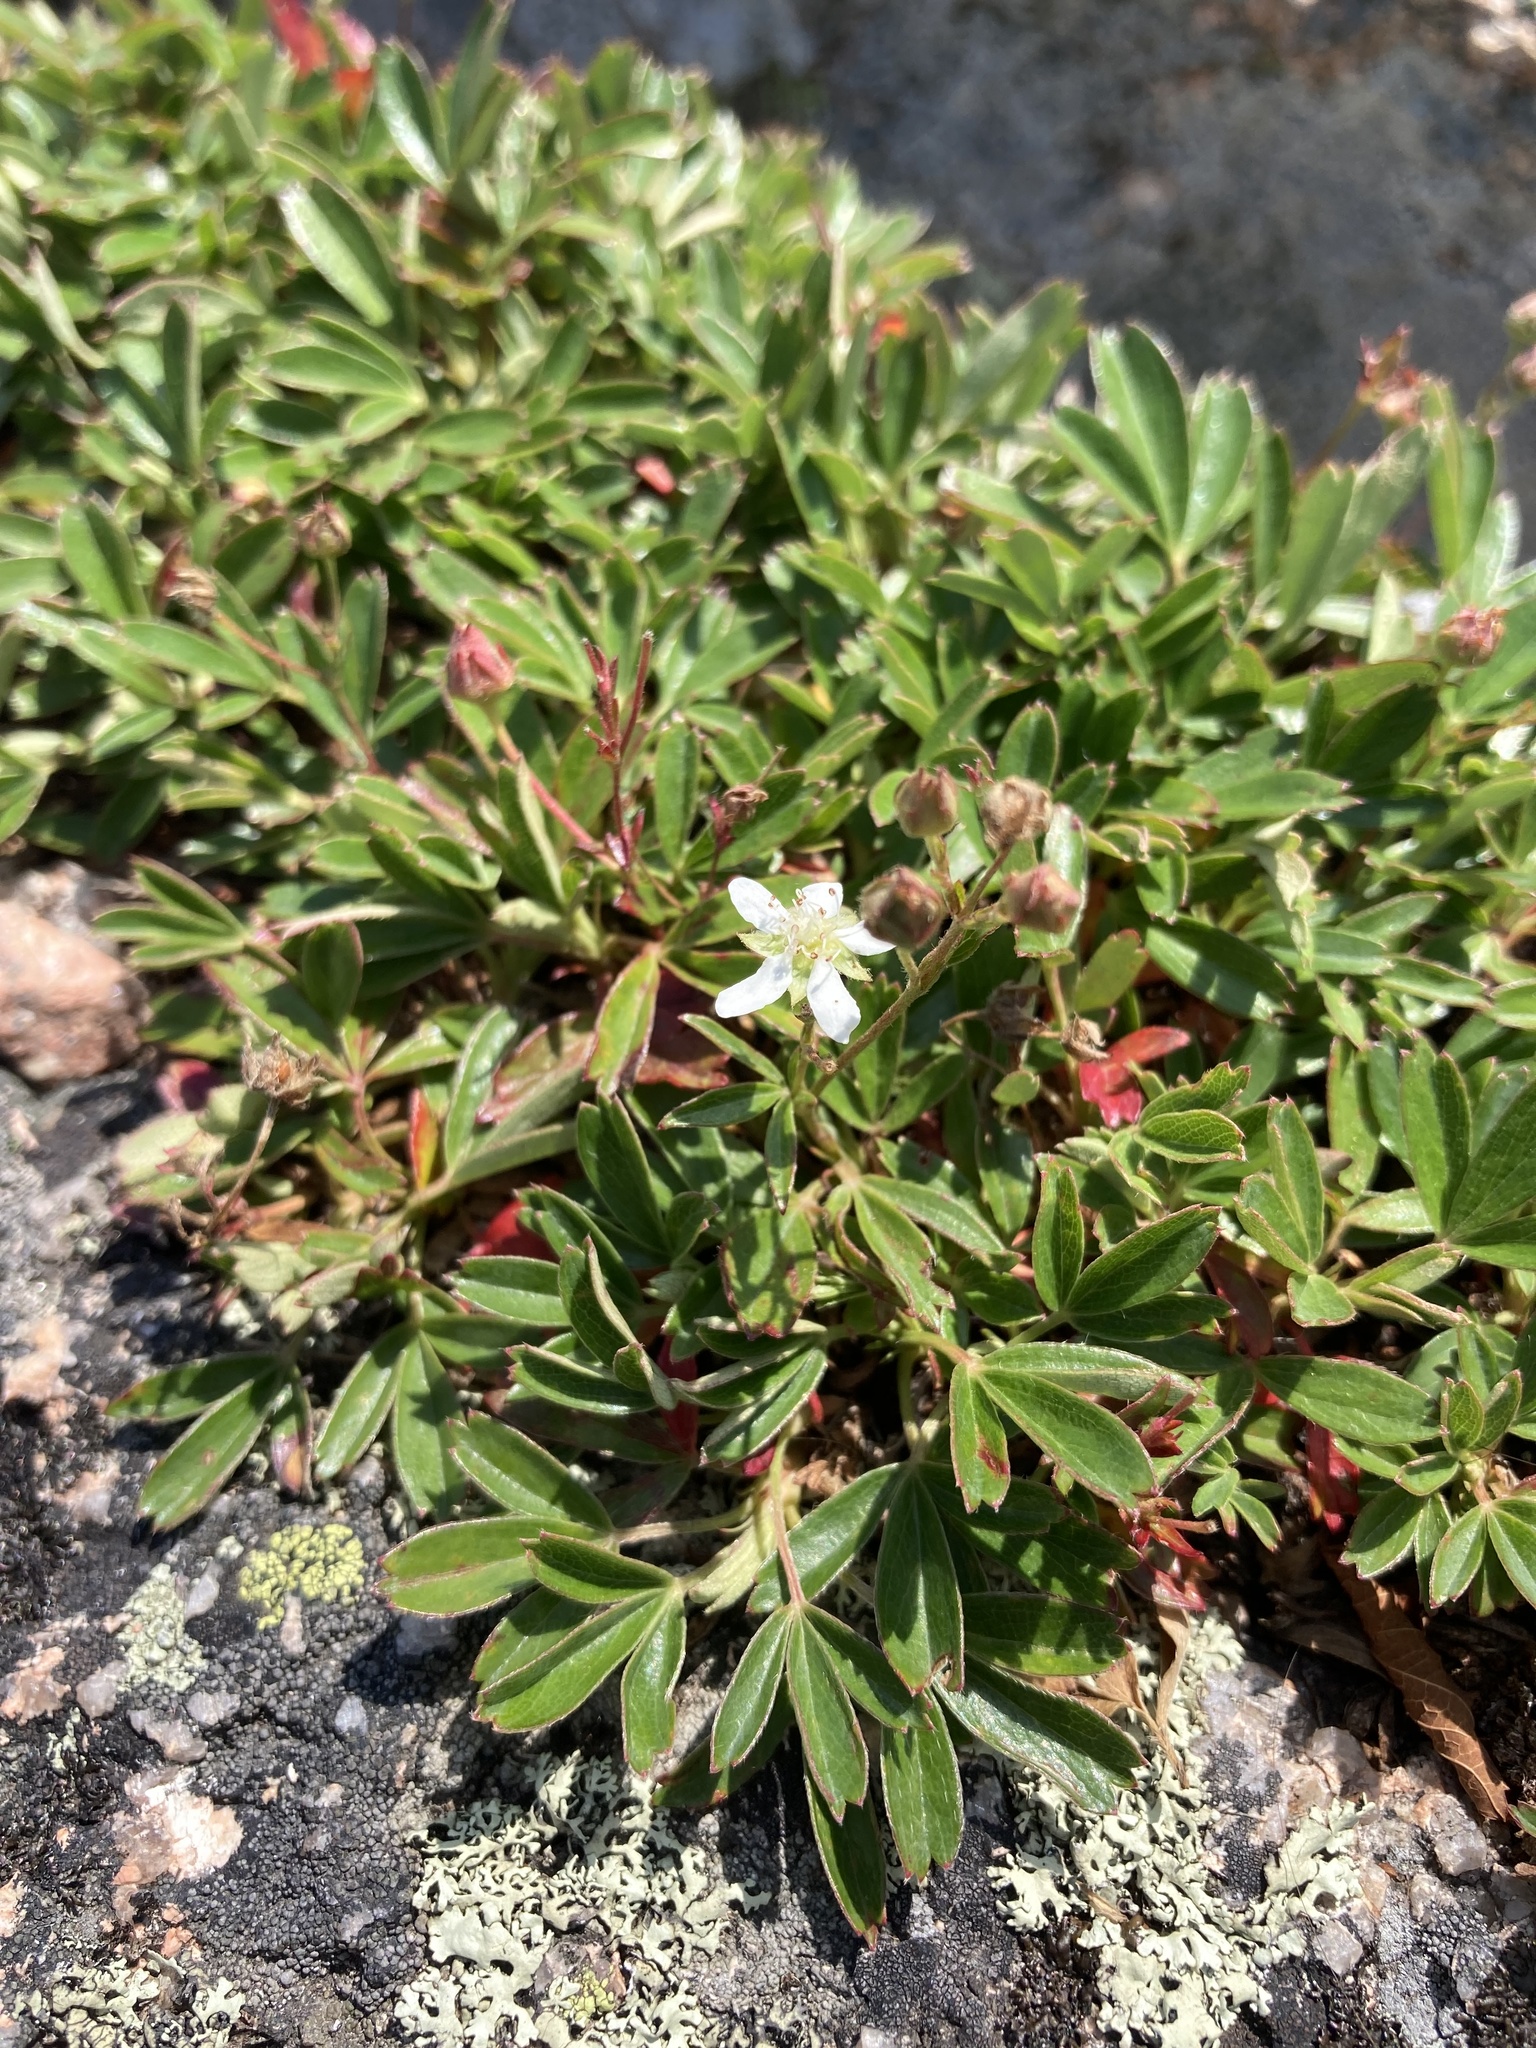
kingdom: Plantae
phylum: Tracheophyta
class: Magnoliopsida
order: Rosales
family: Rosaceae
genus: Sibbaldia
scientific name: Sibbaldia tridentata
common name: Three-toothed cinquefoil
